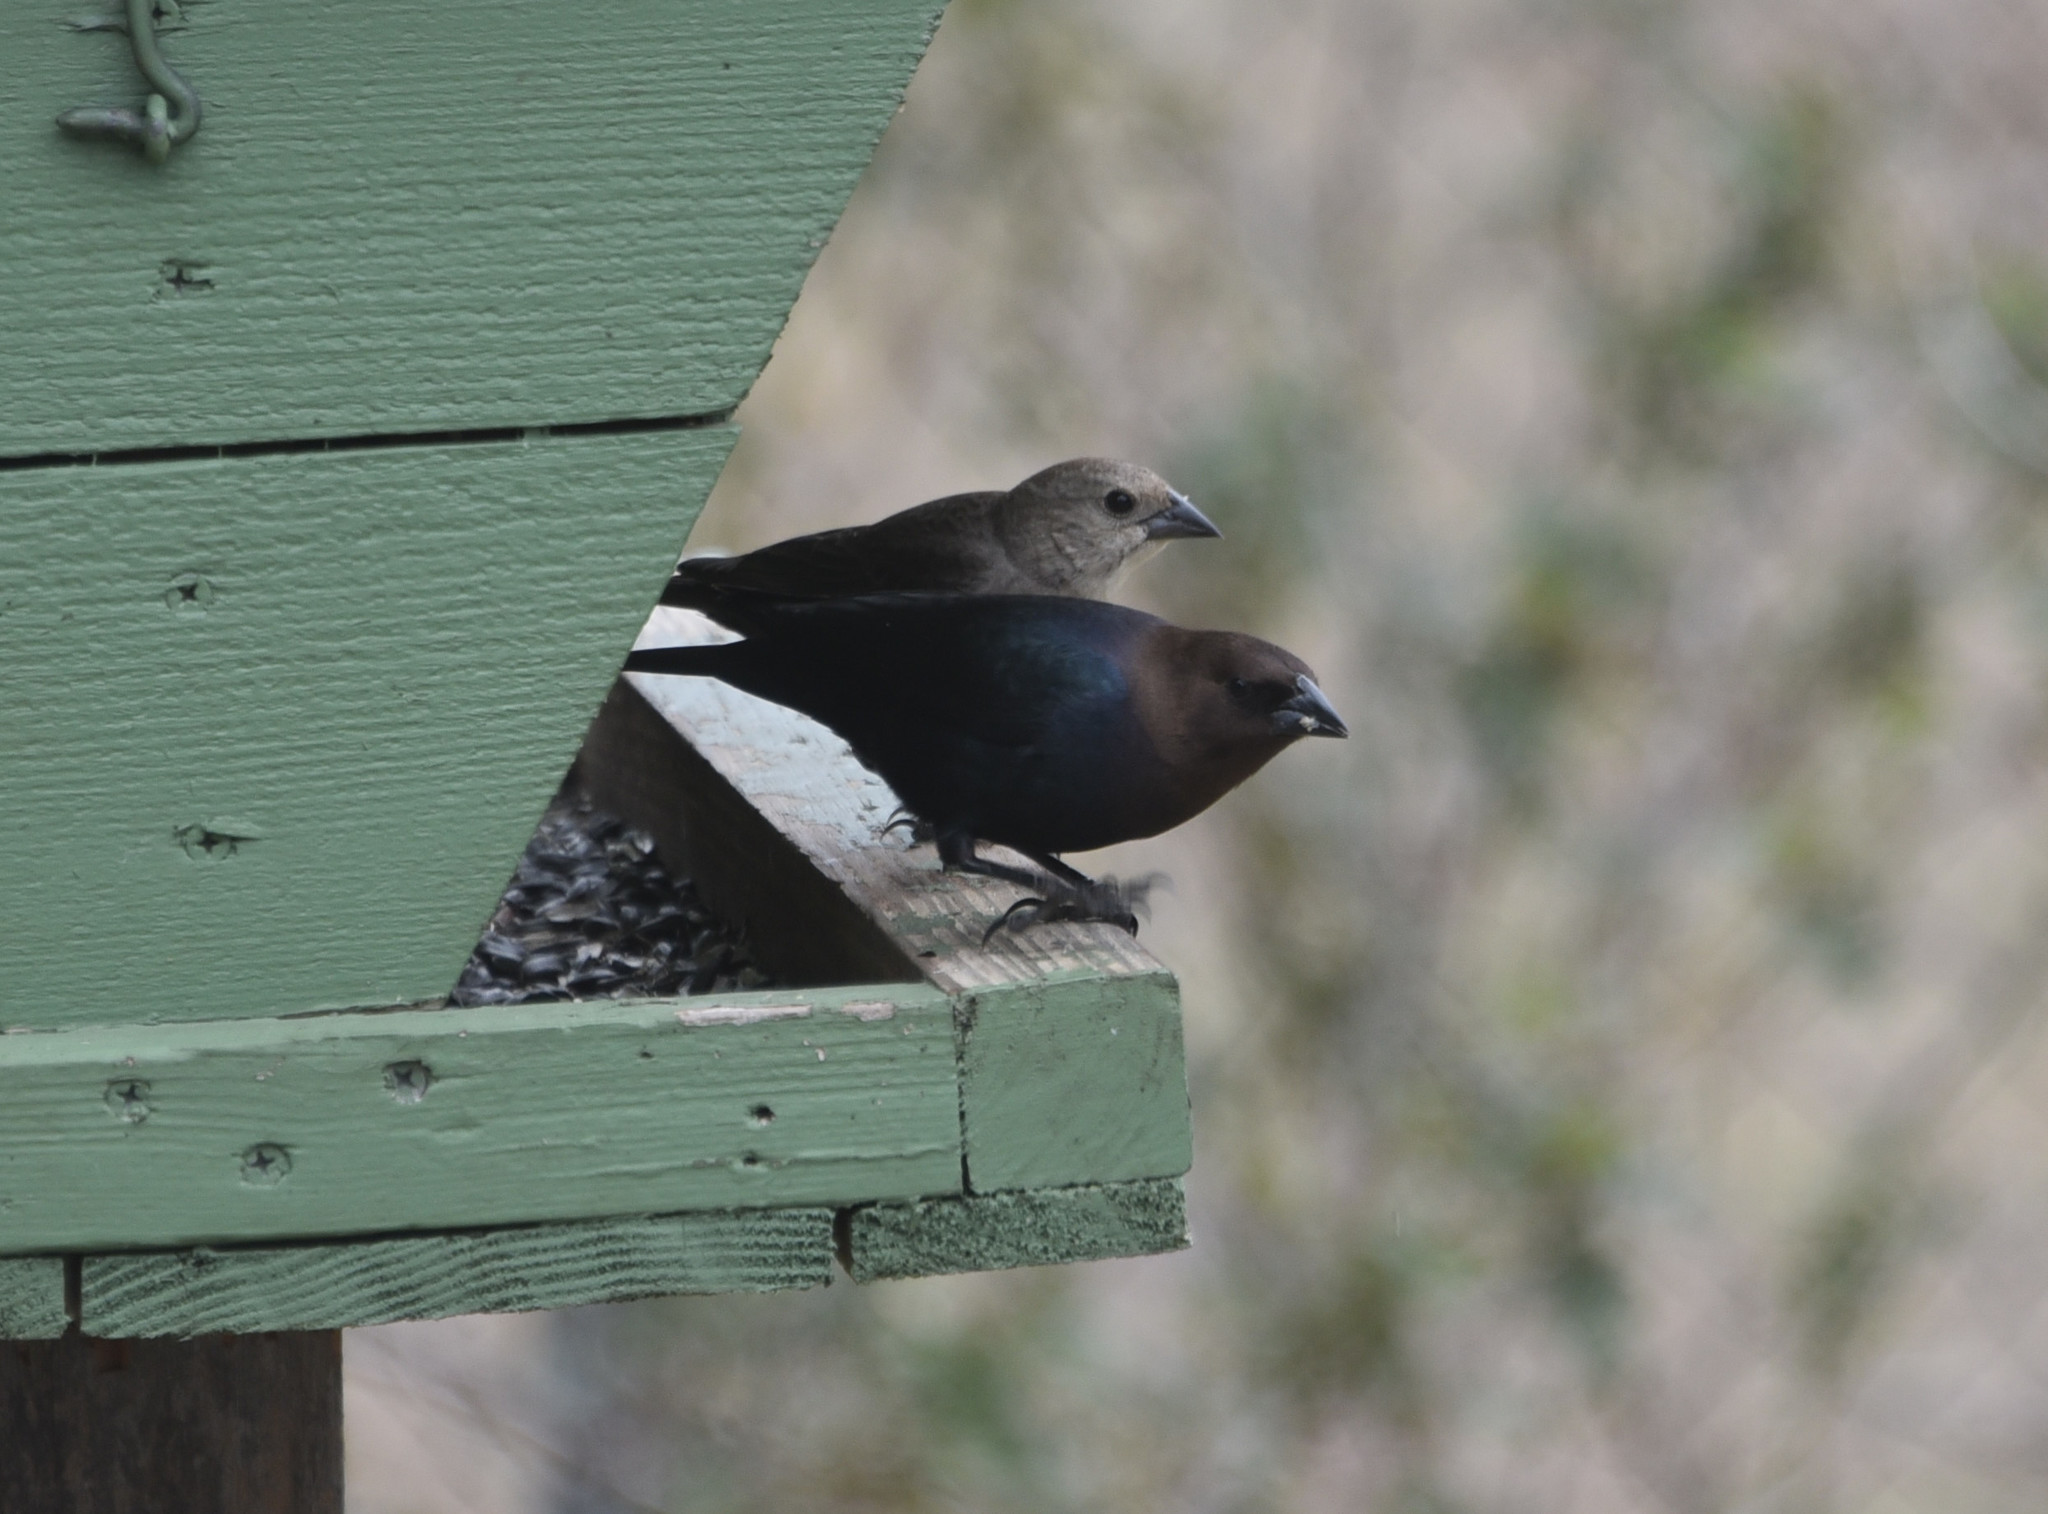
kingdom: Animalia
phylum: Chordata
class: Aves
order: Passeriformes
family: Icteridae
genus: Molothrus
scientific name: Molothrus ater
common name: Brown-headed cowbird
